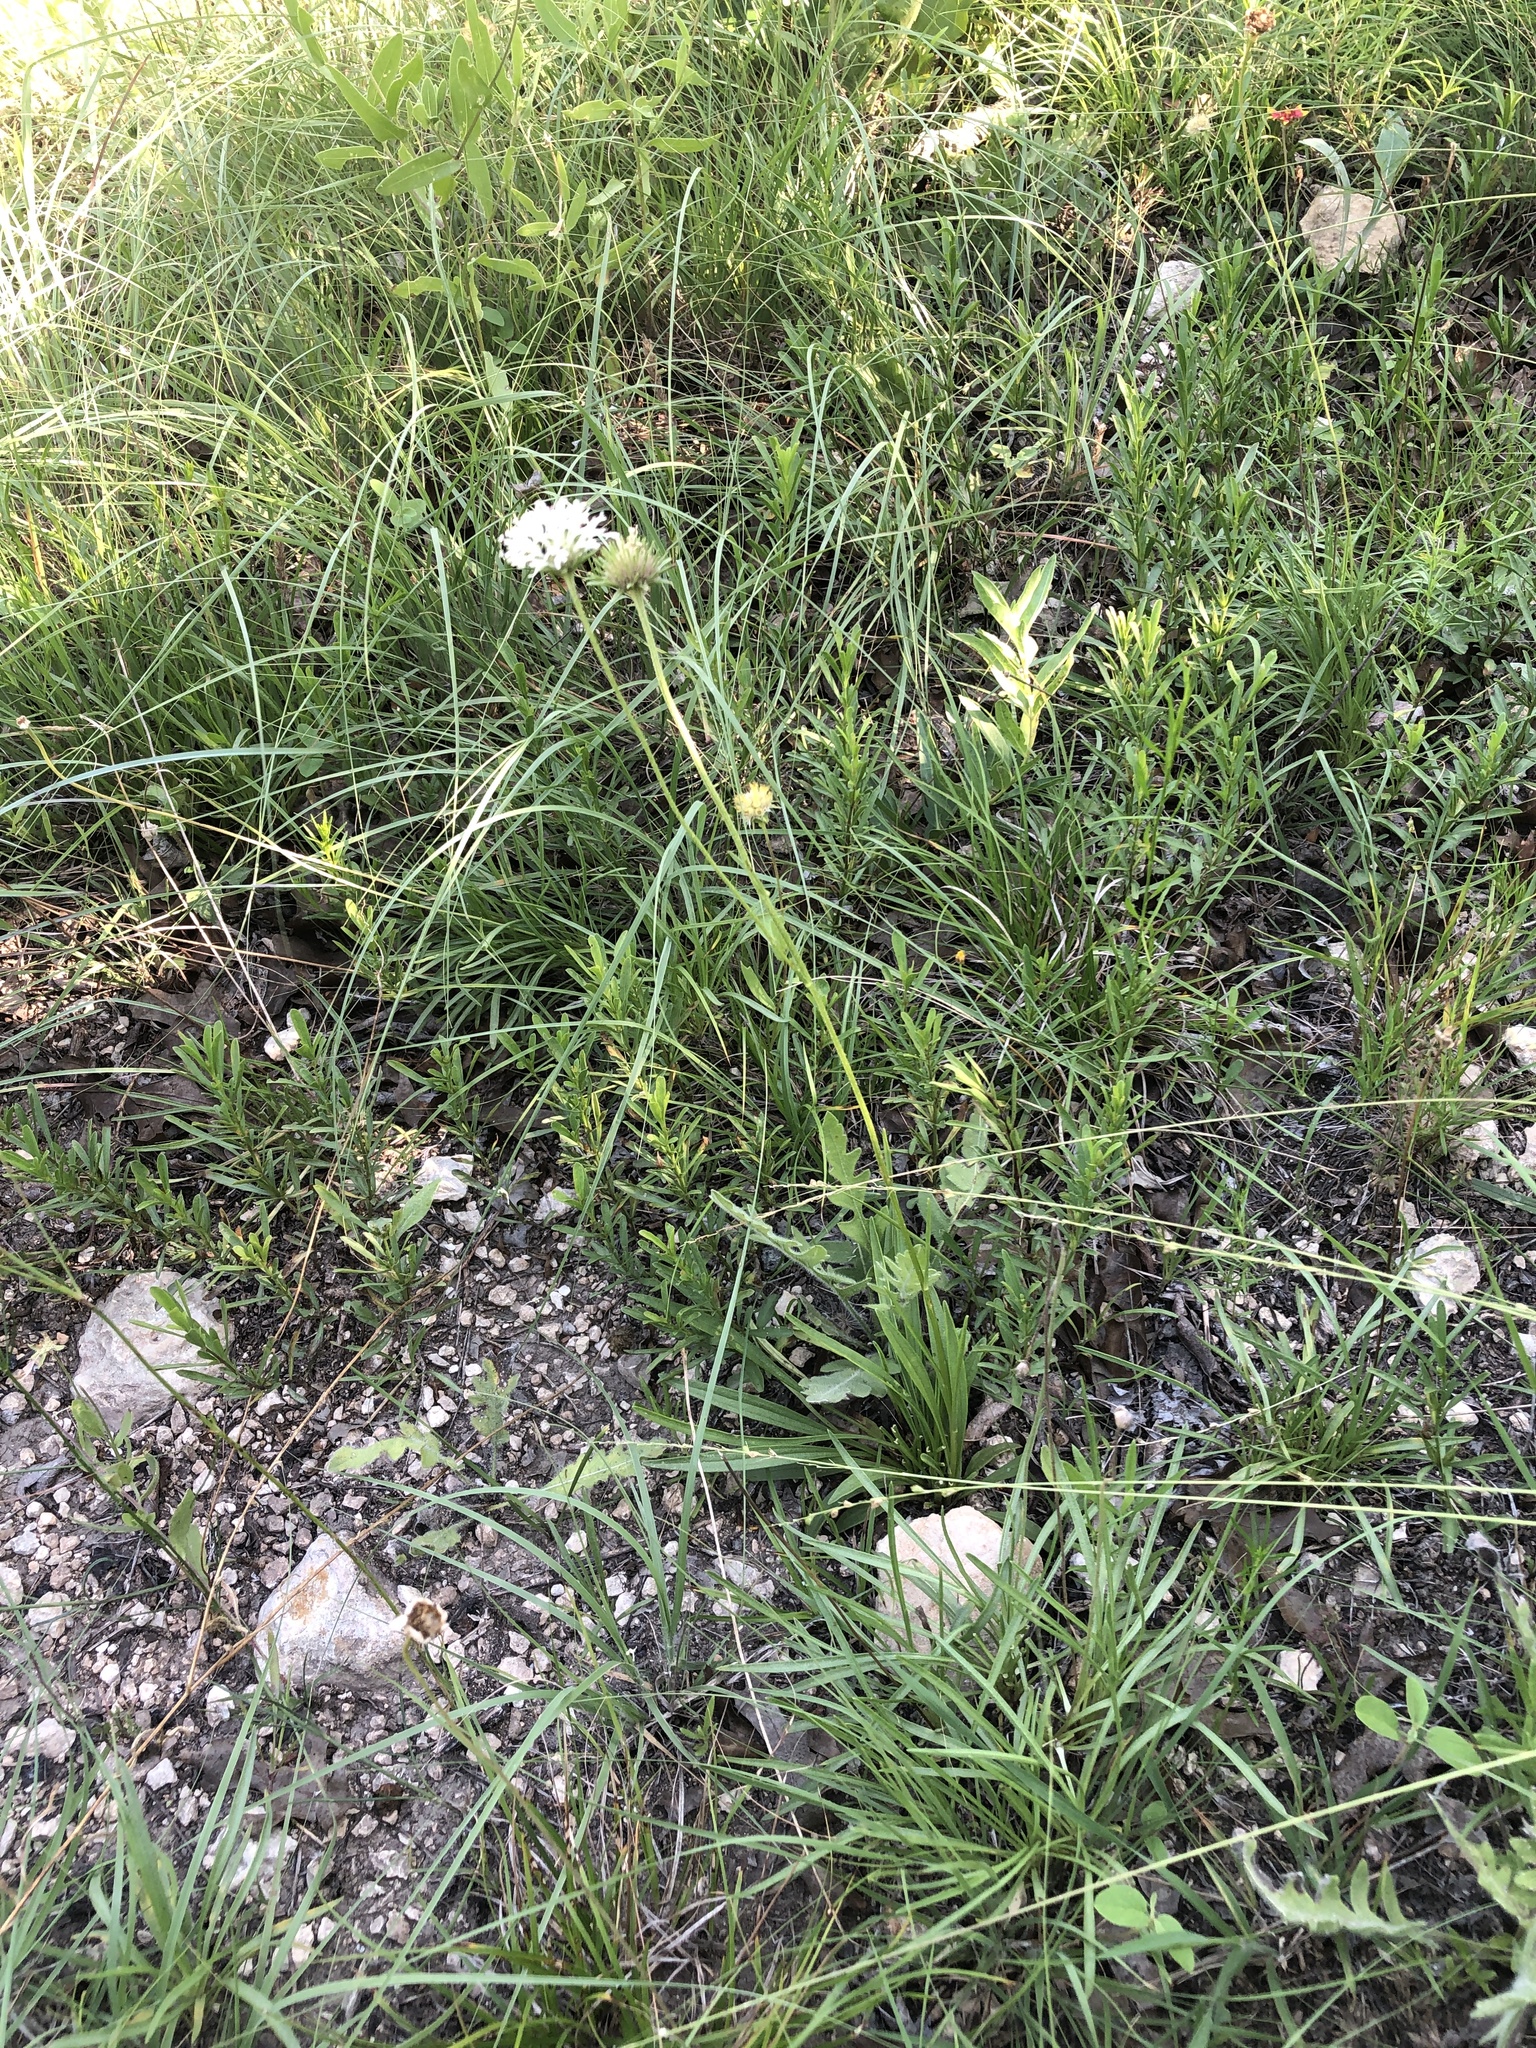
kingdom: Plantae
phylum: Tracheophyta
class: Magnoliopsida
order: Asterales
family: Asteraceae
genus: Marshallia
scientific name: Marshallia caespitosa
